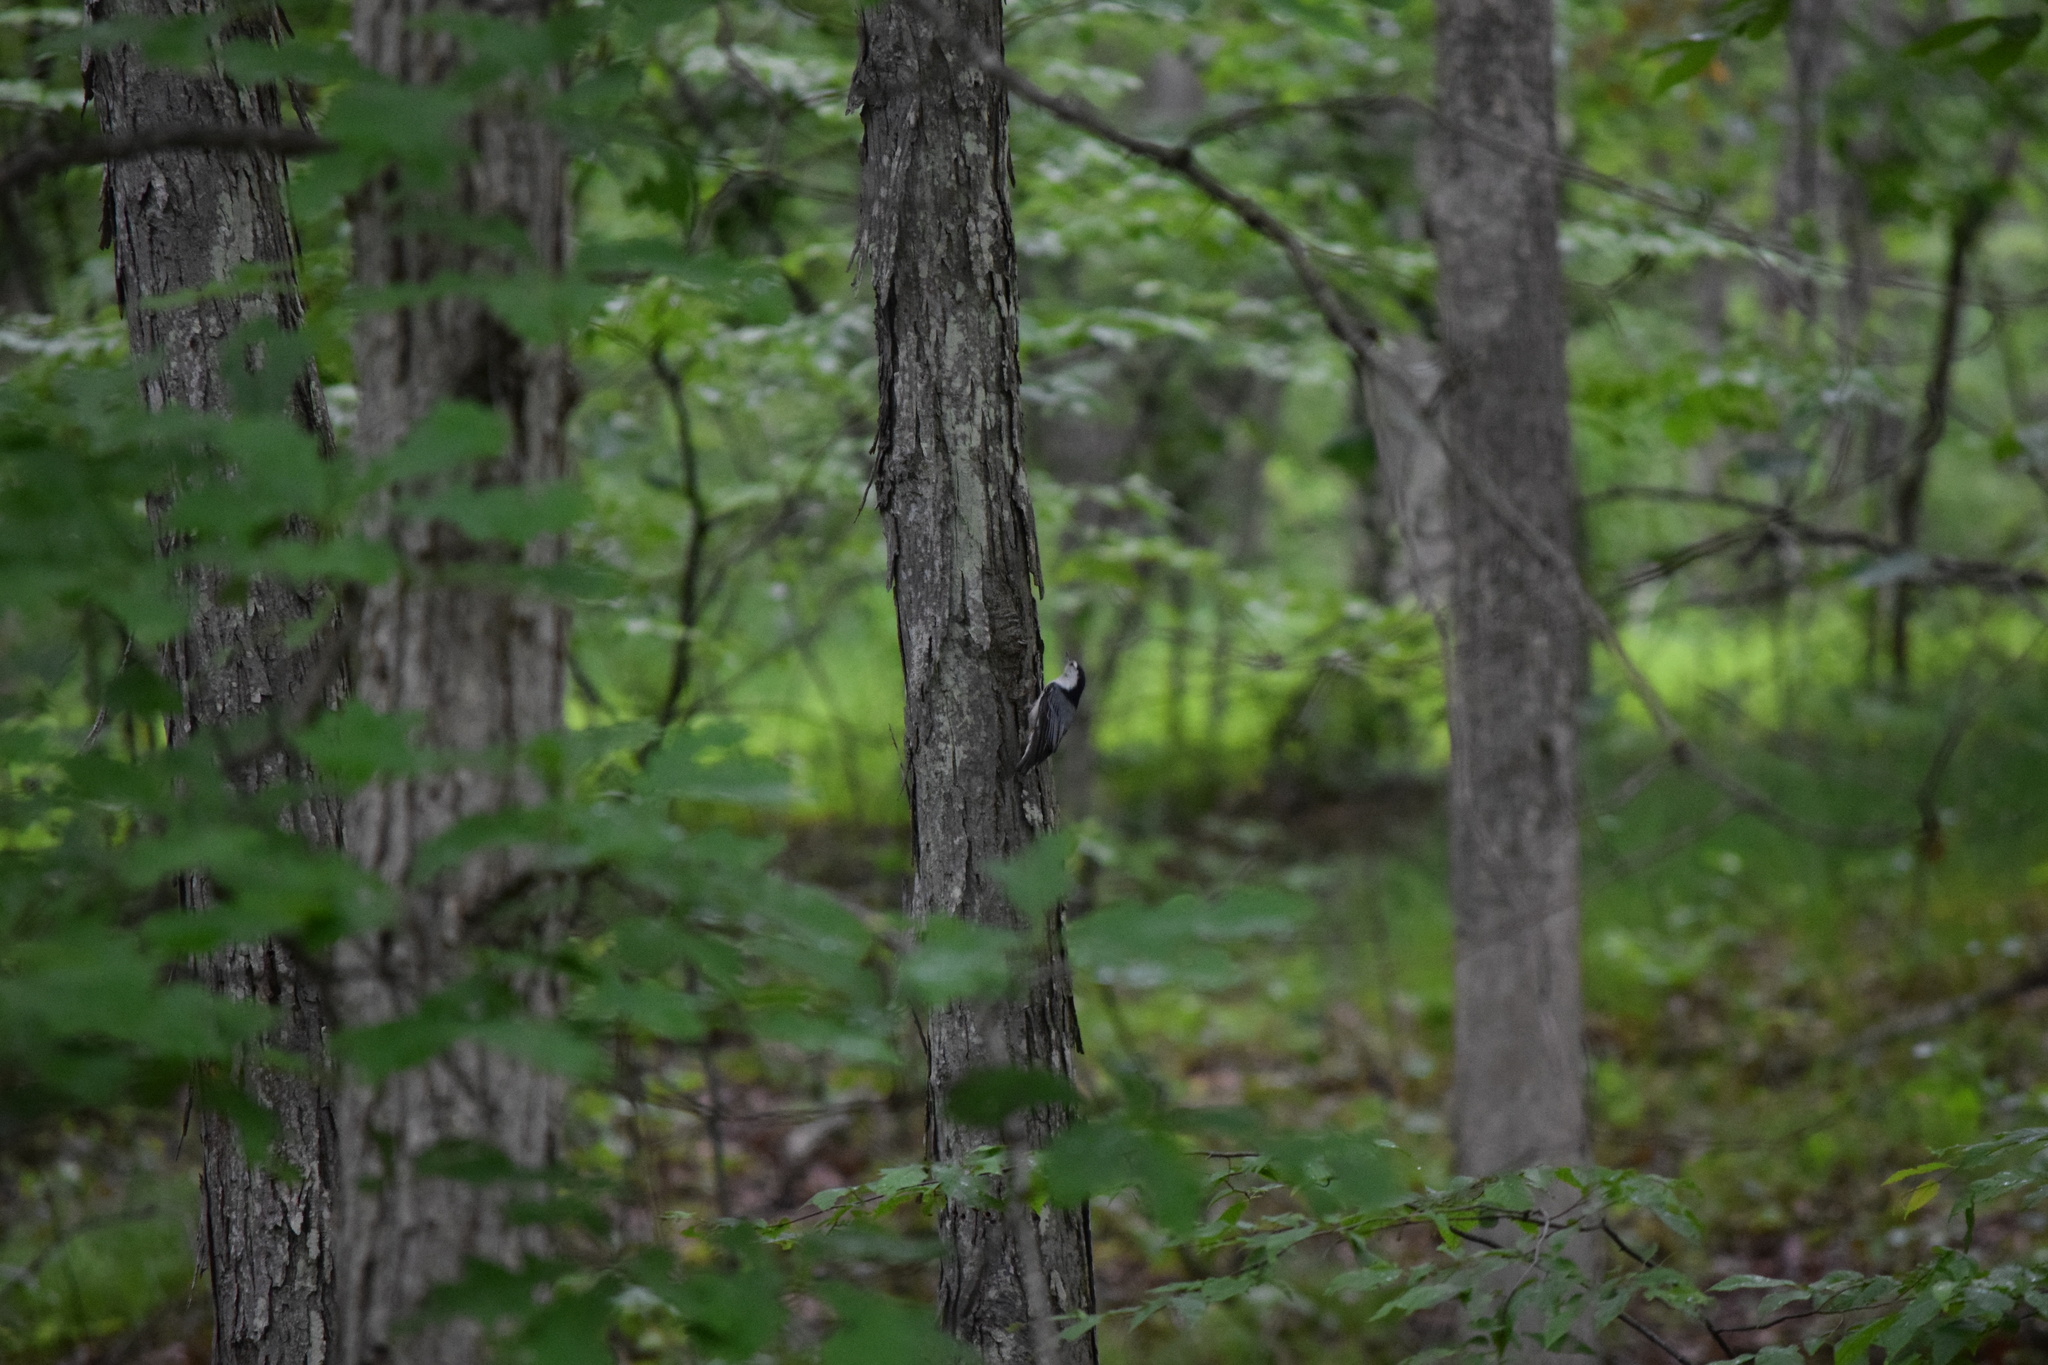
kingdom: Animalia
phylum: Chordata
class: Aves
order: Passeriformes
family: Sittidae
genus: Sitta
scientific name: Sitta carolinensis
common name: White-breasted nuthatch
